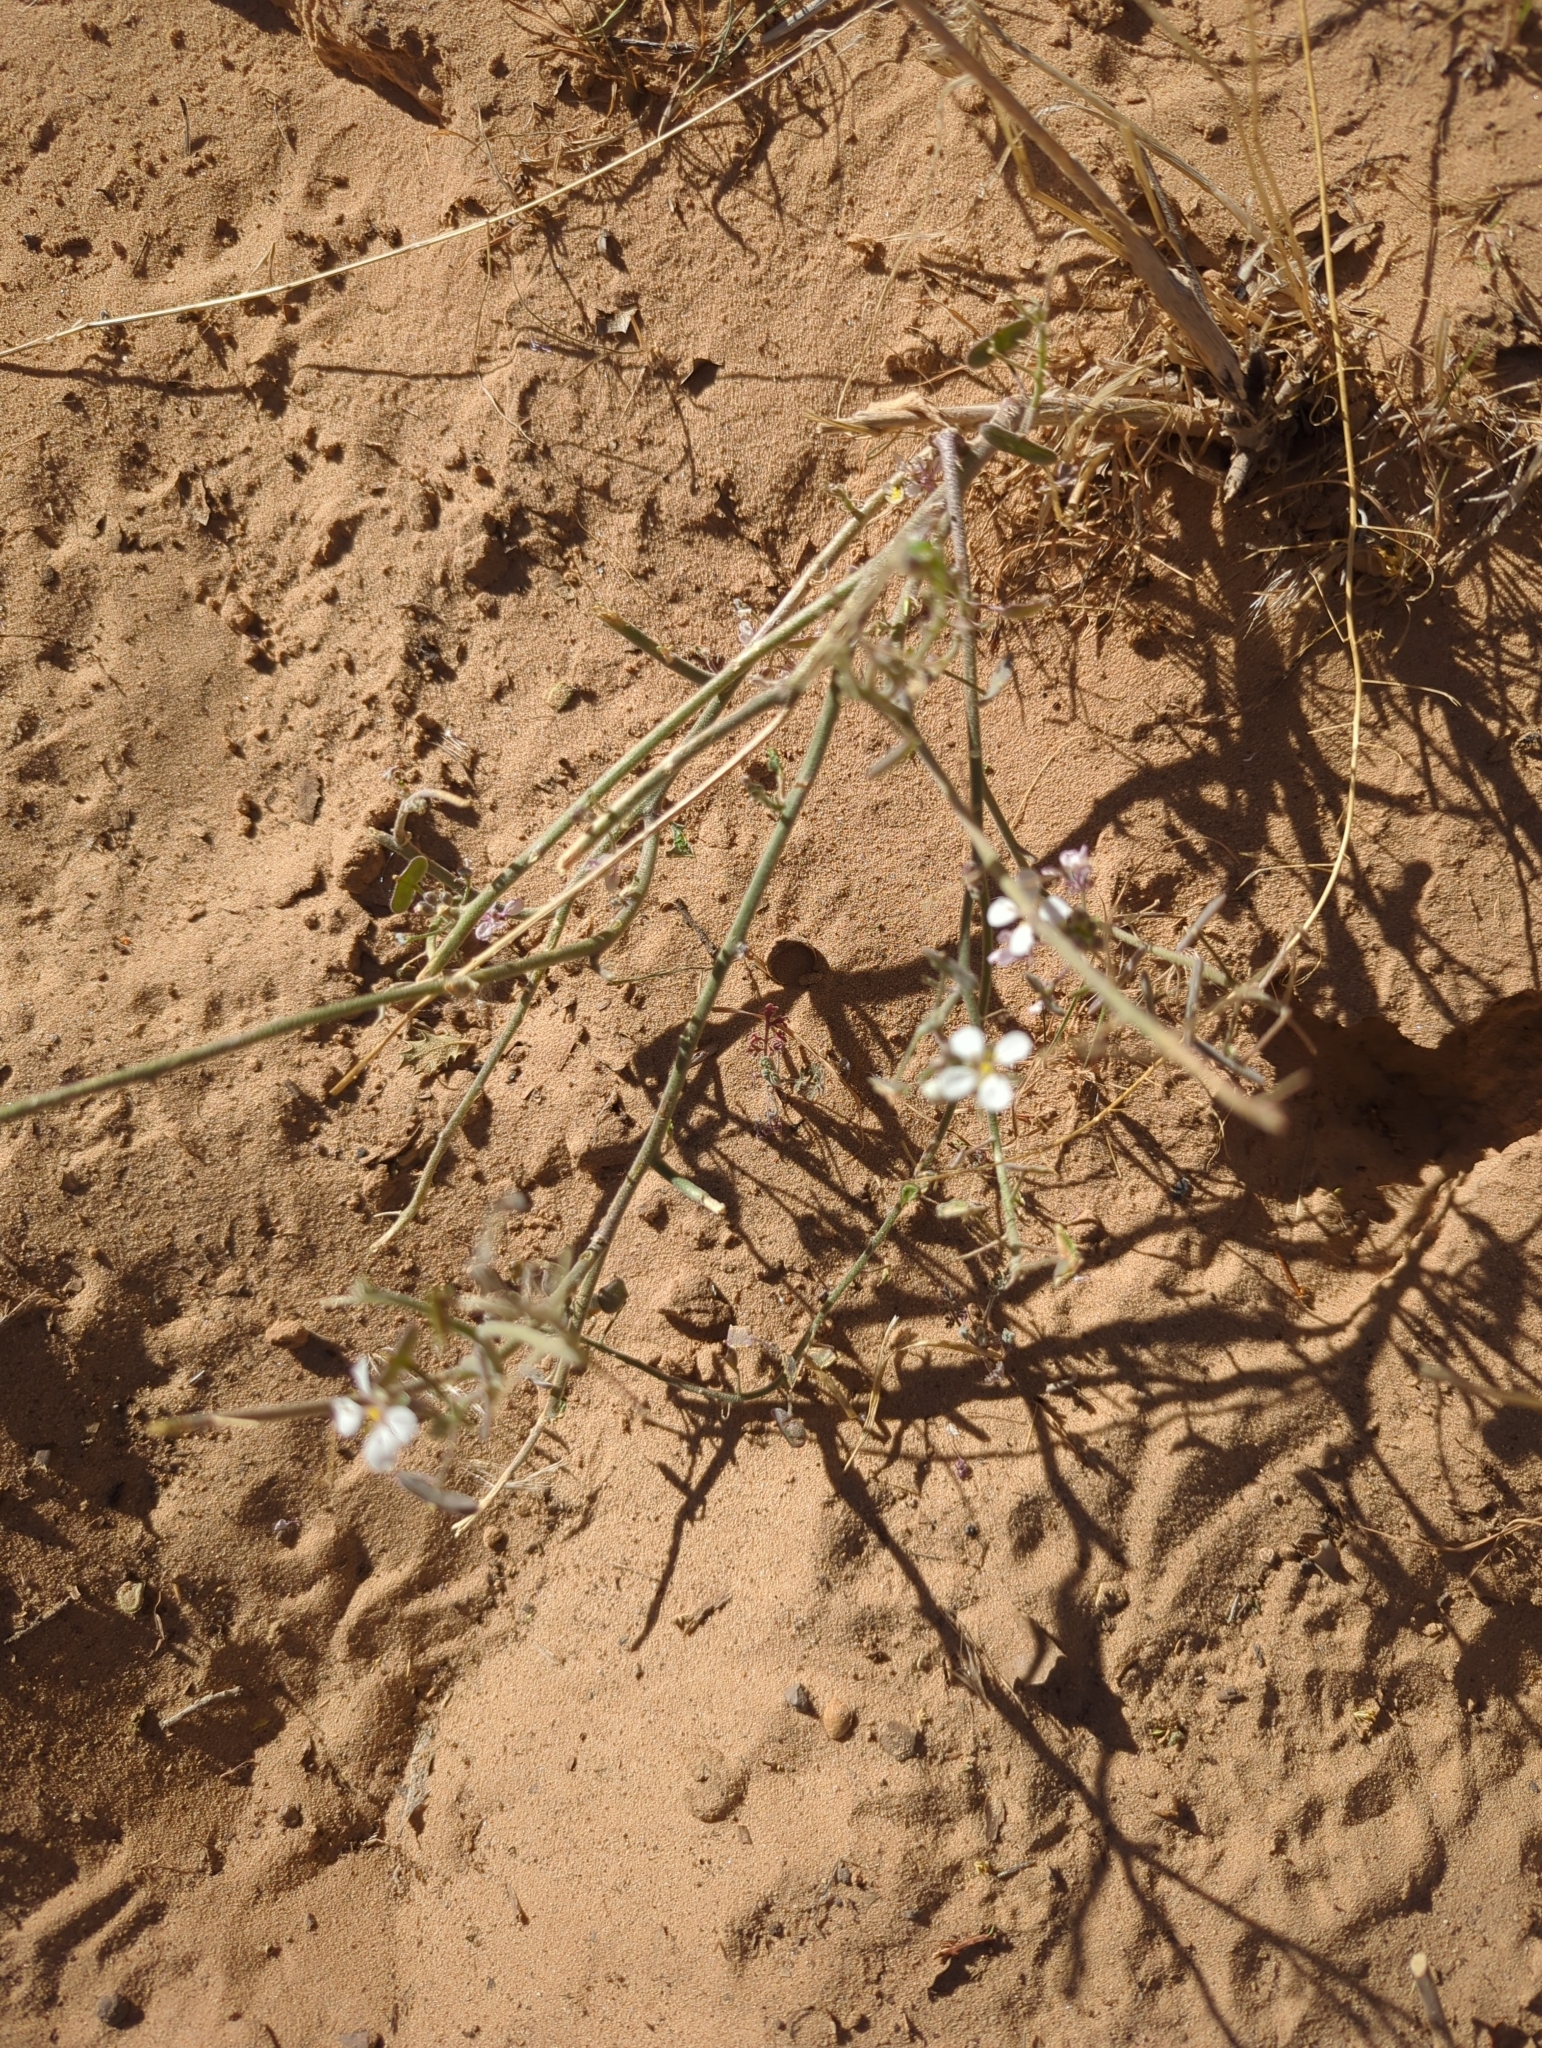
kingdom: Plantae
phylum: Tracheophyta
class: Magnoliopsida
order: Brassicales
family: Brassicaceae
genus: Dimorphocarpa
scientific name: Dimorphocarpa wislizenii
